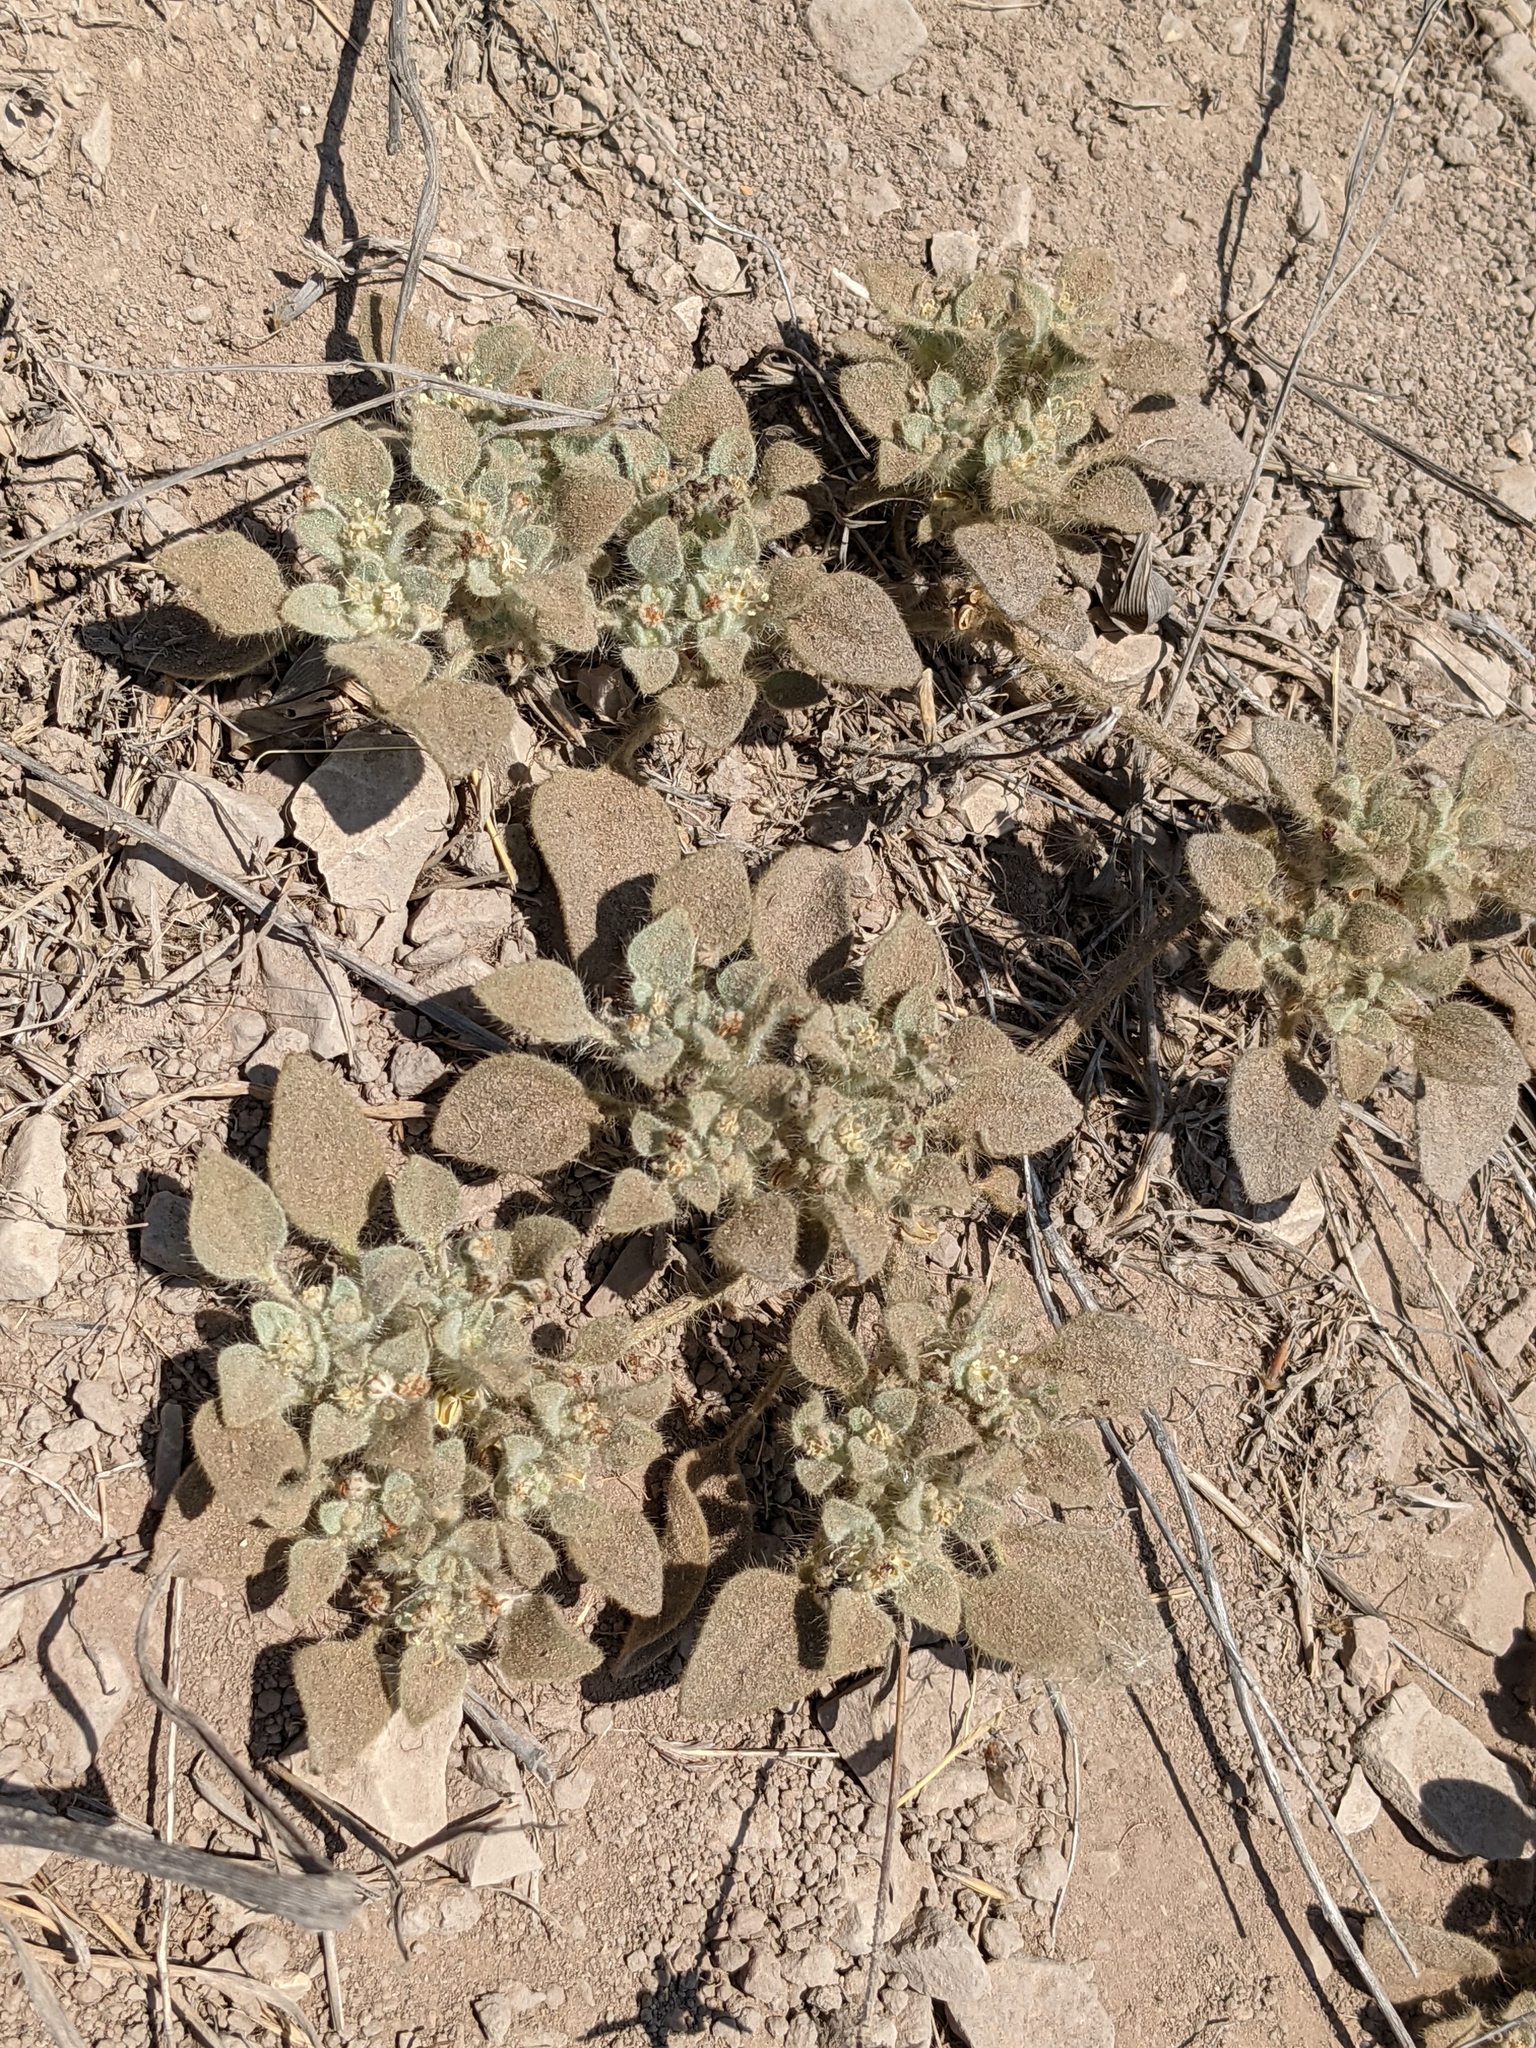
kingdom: Plantae
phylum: Tracheophyta
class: Magnoliopsida
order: Malpighiales
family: Euphorbiaceae
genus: Croton
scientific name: Croton setiger
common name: Dove weed
